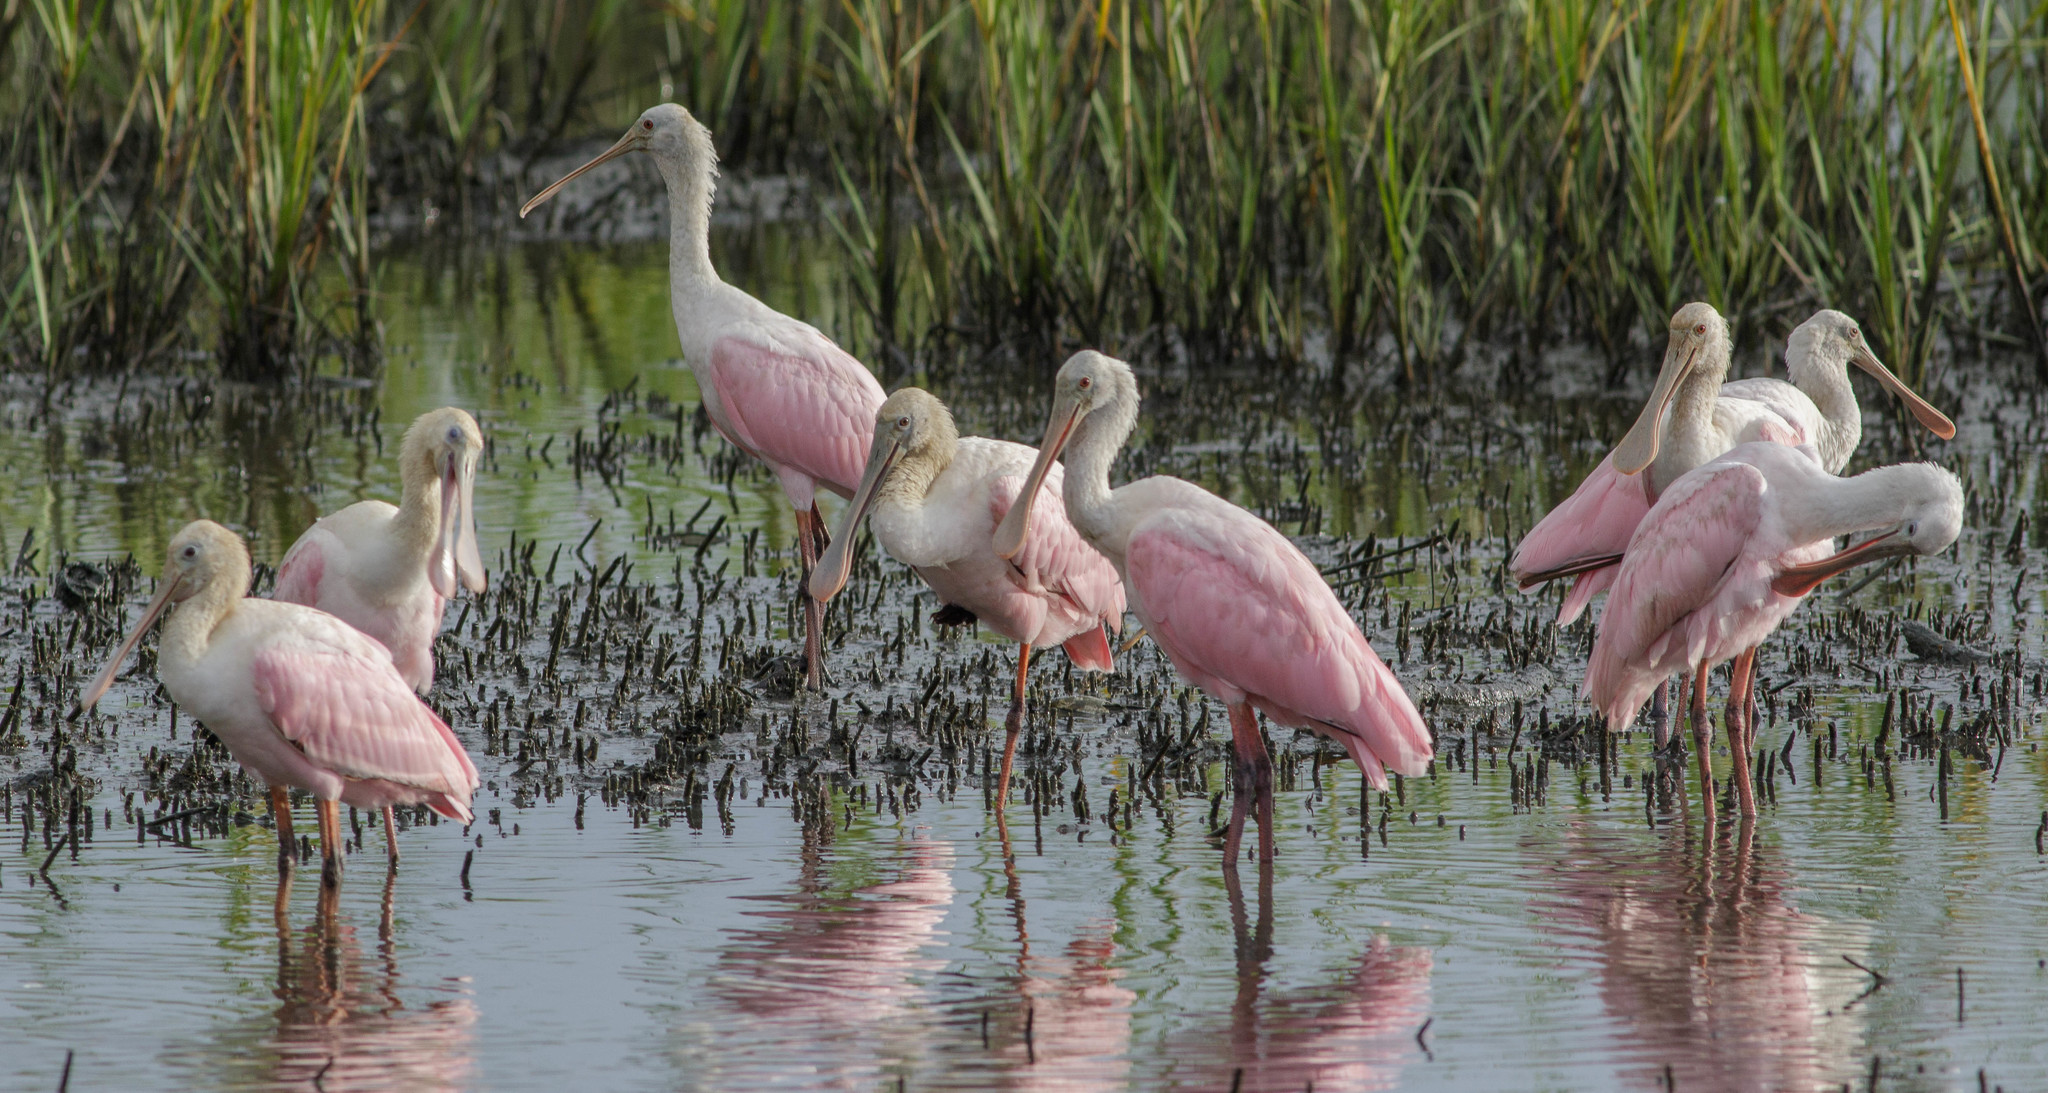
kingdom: Animalia
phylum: Chordata
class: Aves
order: Pelecaniformes
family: Threskiornithidae
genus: Platalea
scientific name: Platalea ajaja
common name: Roseate spoonbill
